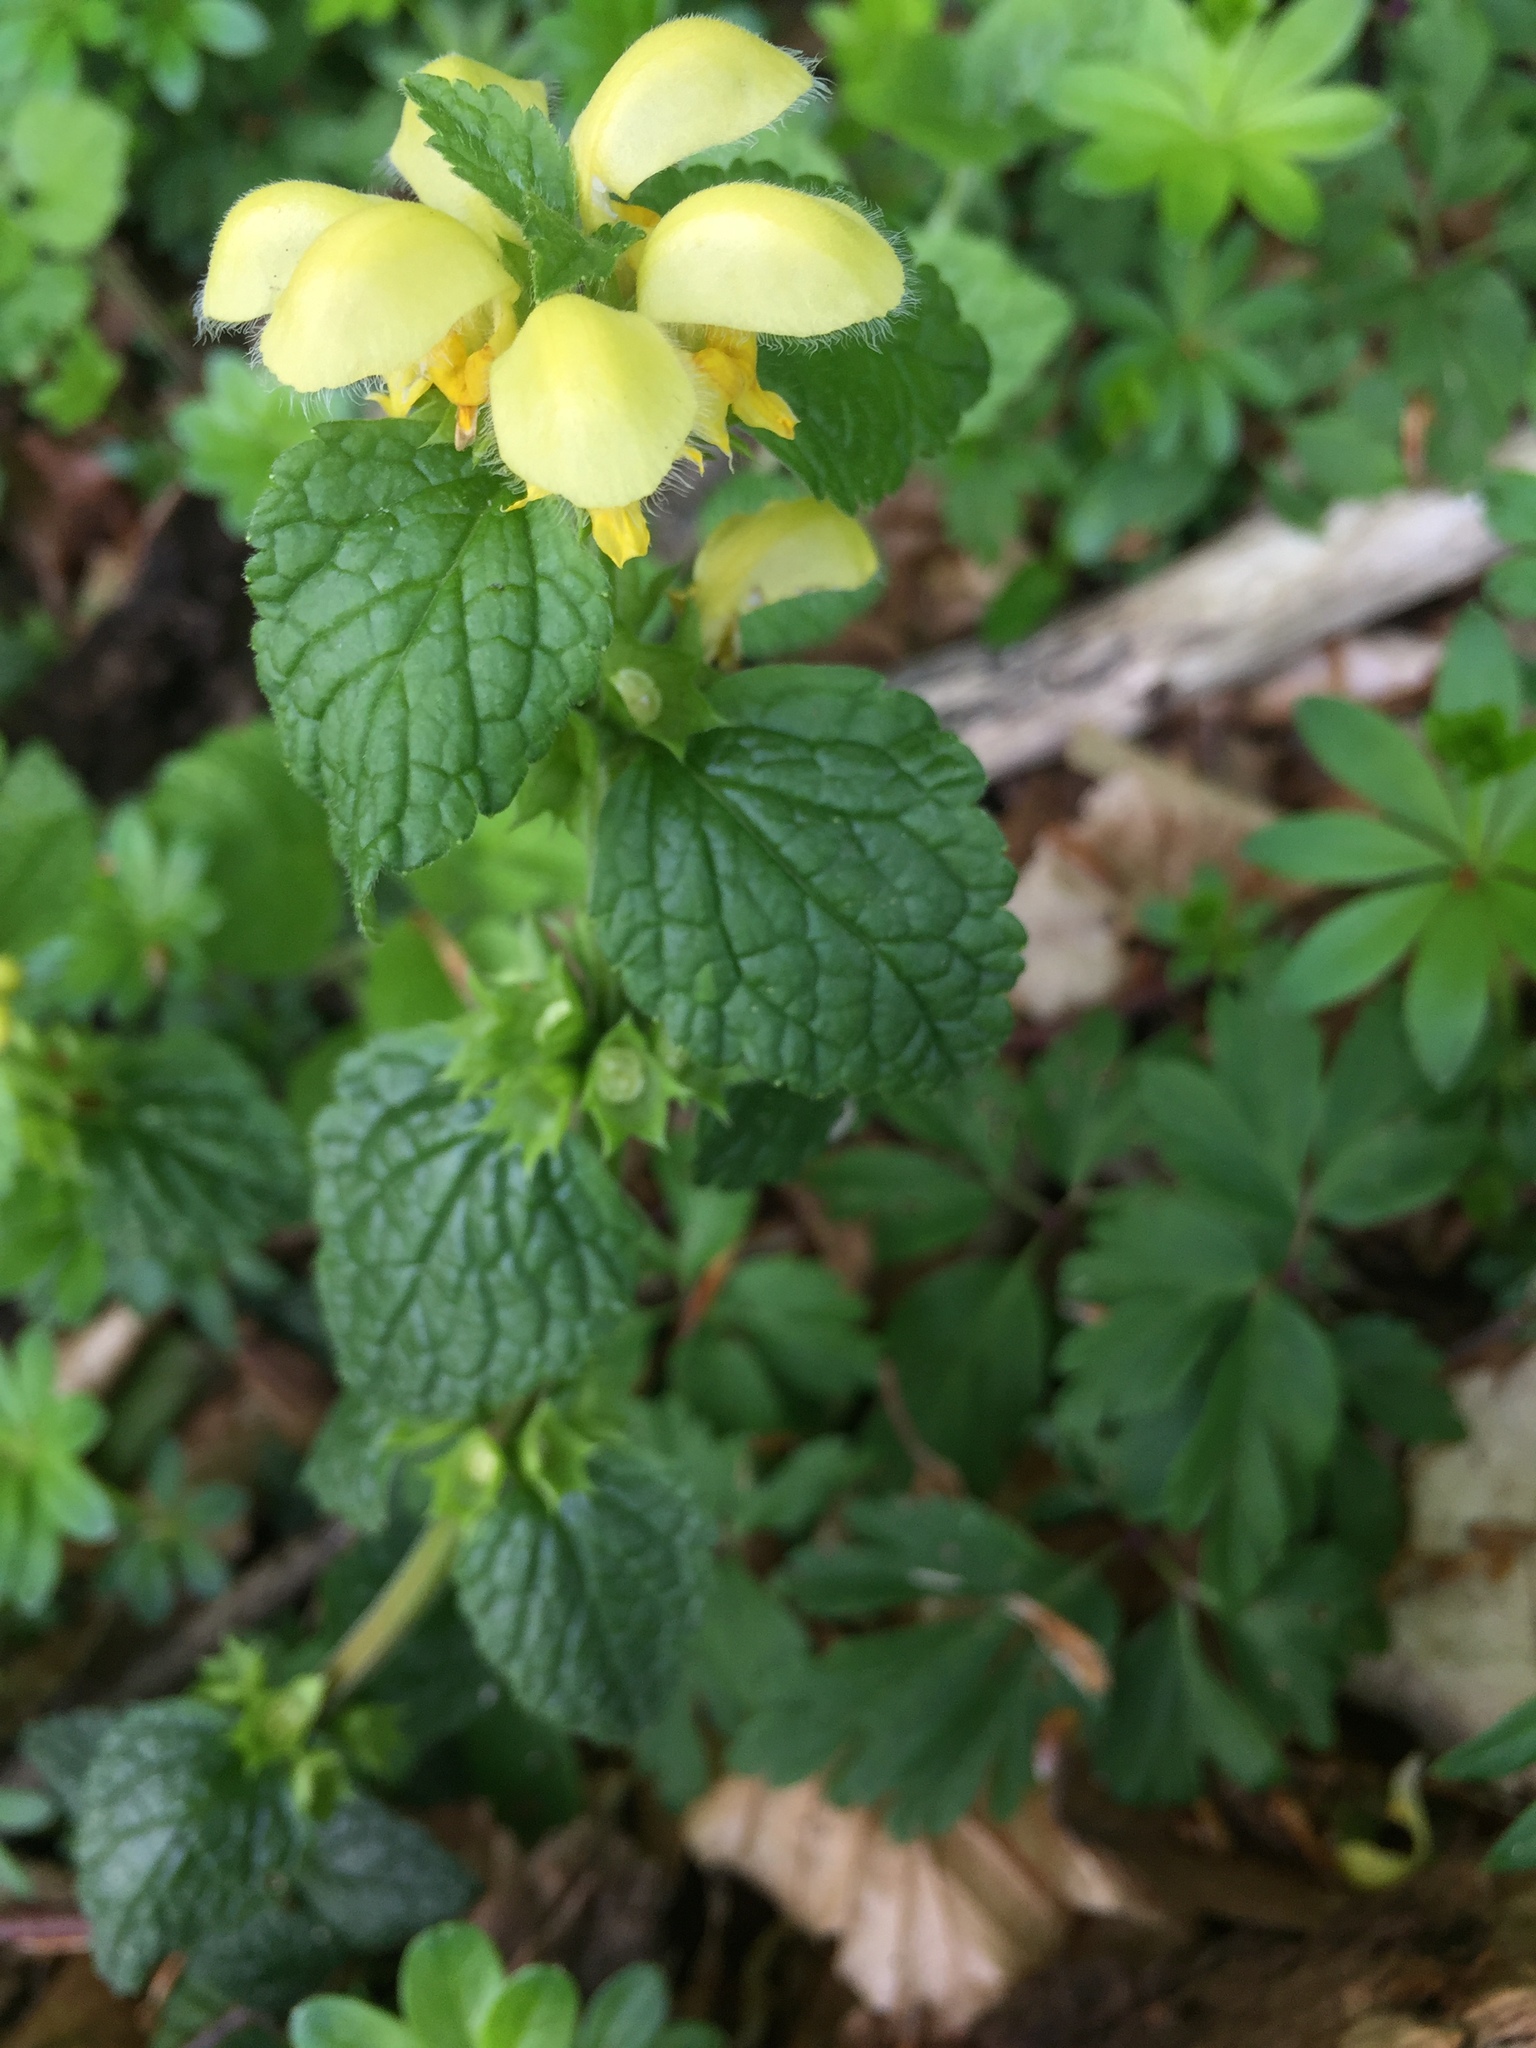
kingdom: Plantae
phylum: Tracheophyta
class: Magnoliopsida
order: Lamiales
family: Lamiaceae
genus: Lamium
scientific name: Lamium galeobdolon
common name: Yellow archangel
